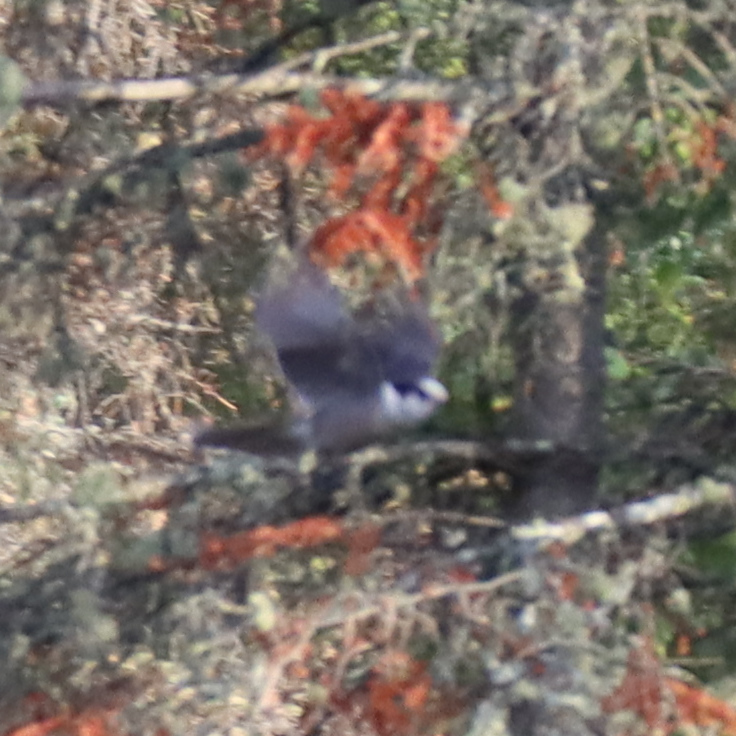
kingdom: Animalia
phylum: Chordata
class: Aves
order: Passeriformes
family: Corvidae
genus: Perisoreus
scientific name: Perisoreus canadensis
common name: Gray jay
